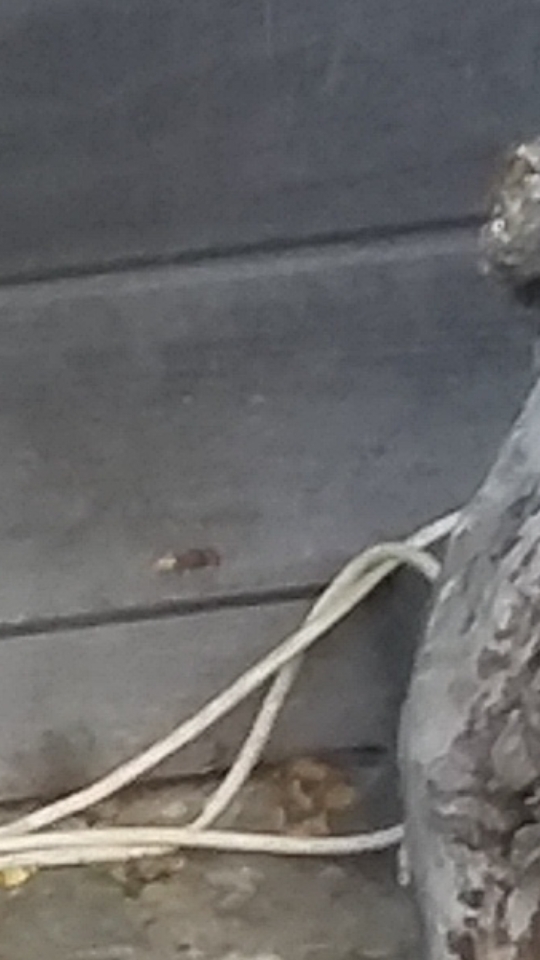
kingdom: Animalia
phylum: Arthropoda
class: Insecta
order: Hymenoptera
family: Vespidae
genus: Vespa
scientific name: Vespa crabro
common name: Hornet
